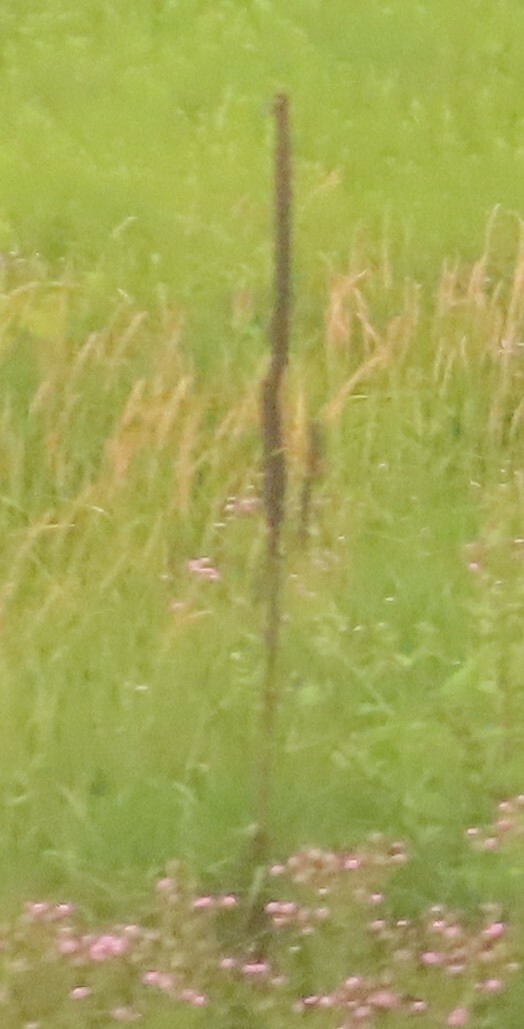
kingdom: Plantae
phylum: Tracheophyta
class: Magnoliopsida
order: Lamiales
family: Scrophulariaceae
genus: Verbascum
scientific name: Verbascum thapsus
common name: Common mullein
